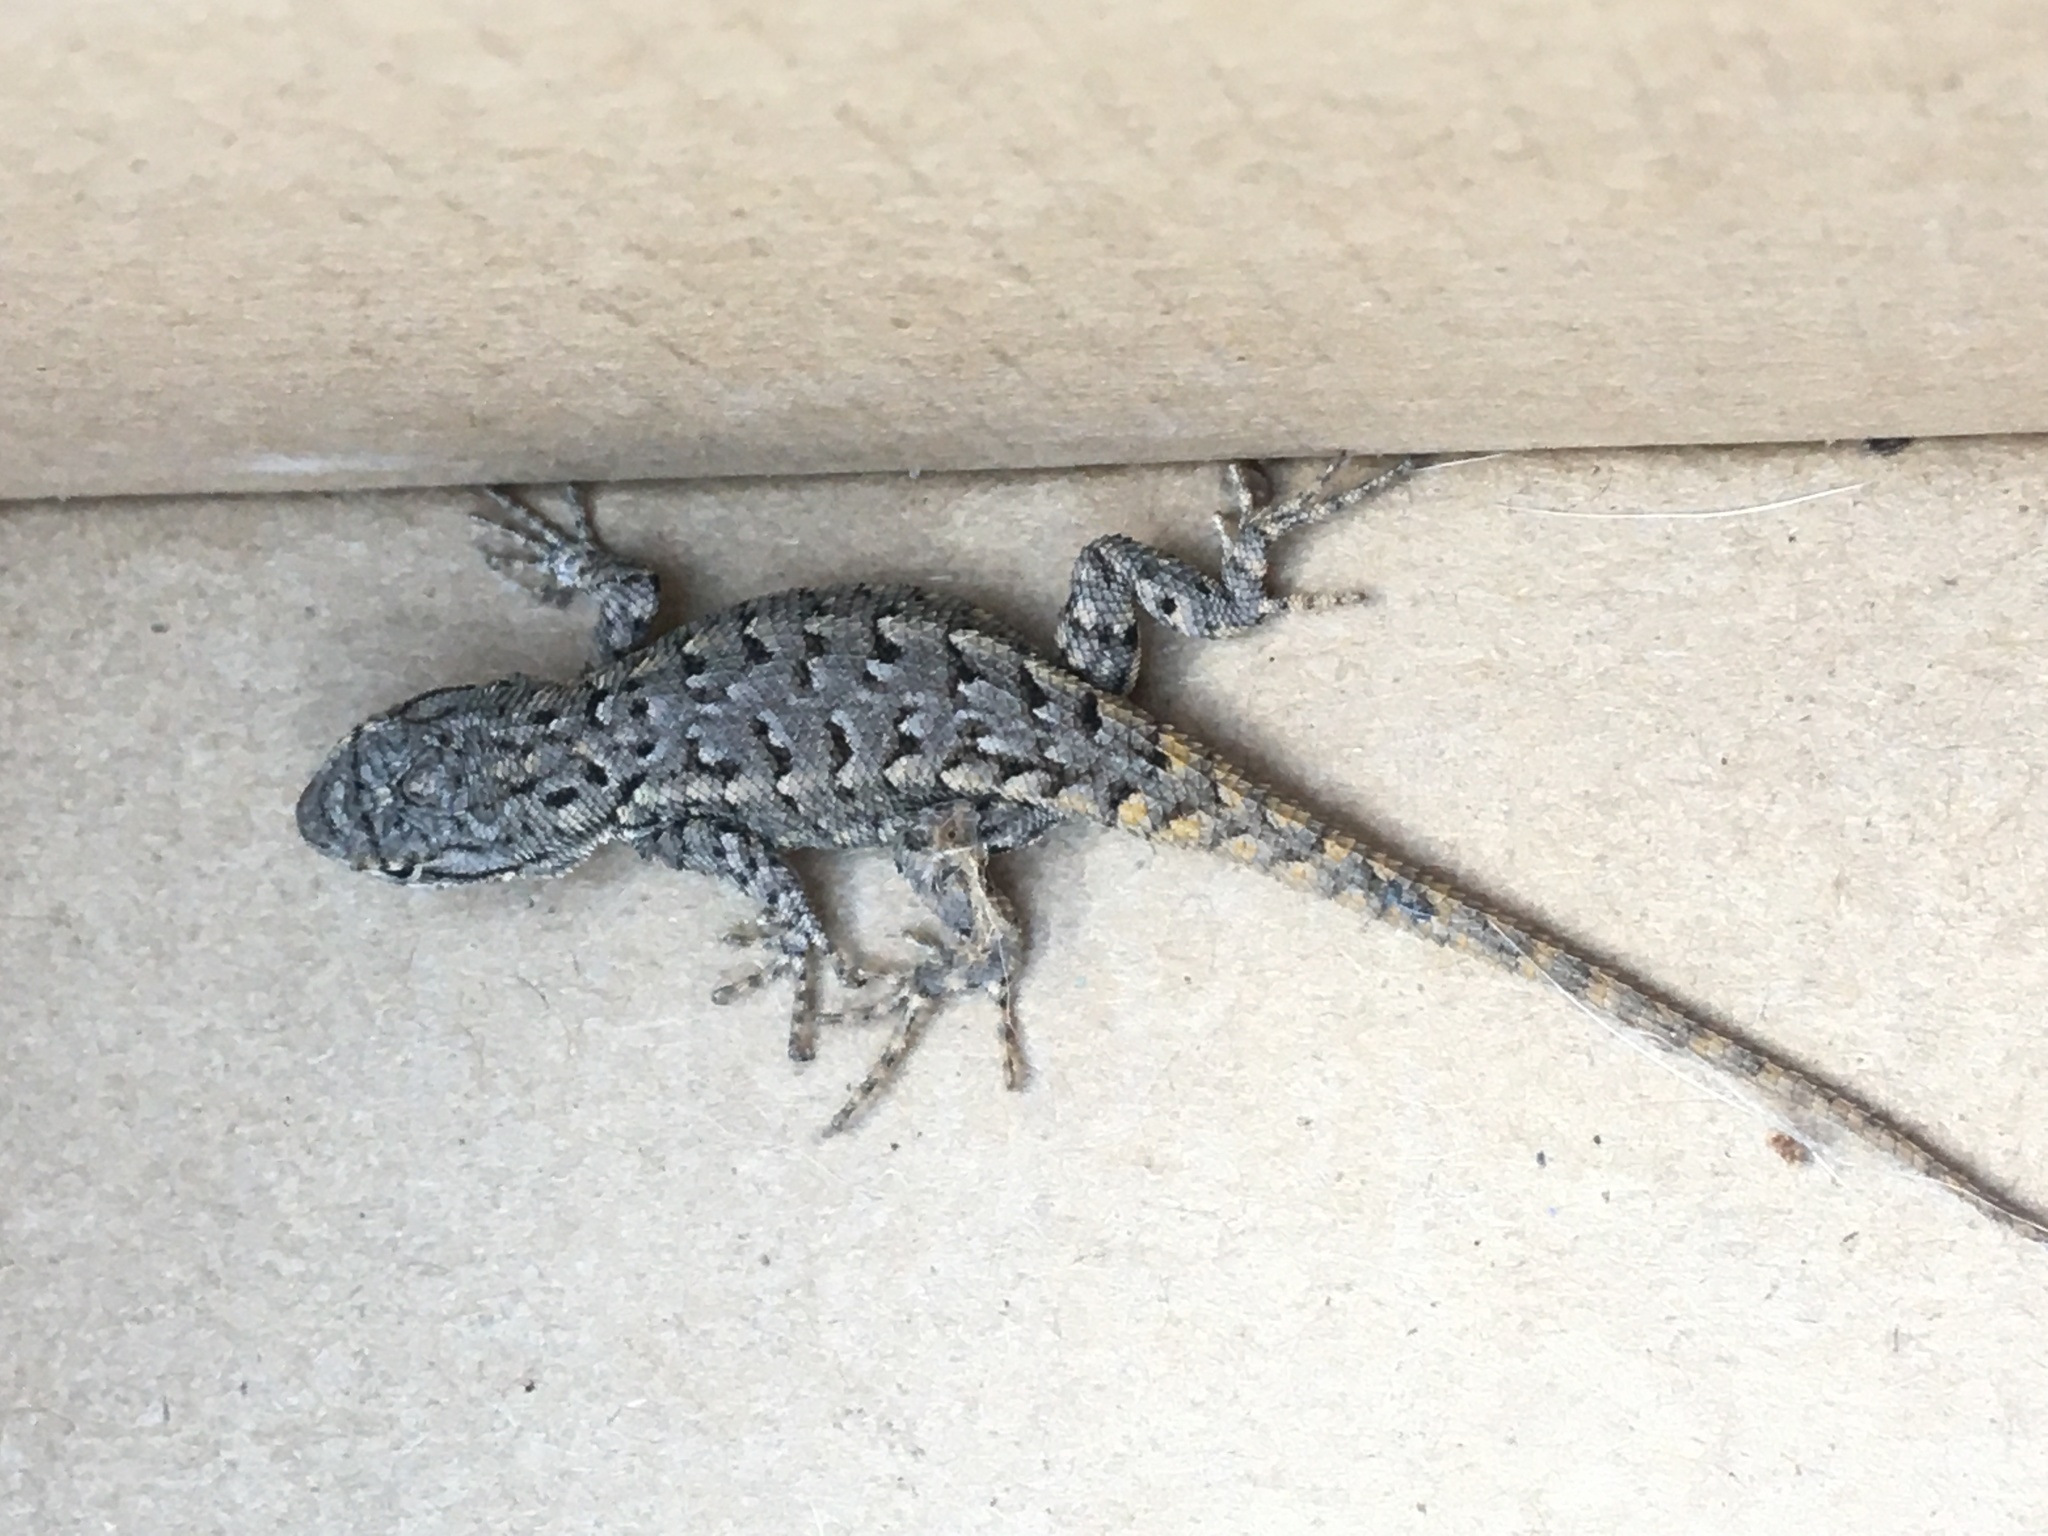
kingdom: Animalia
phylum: Chordata
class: Squamata
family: Phrynosomatidae
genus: Sceloporus
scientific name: Sceloporus consobrinus
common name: Southern prairie lizard
